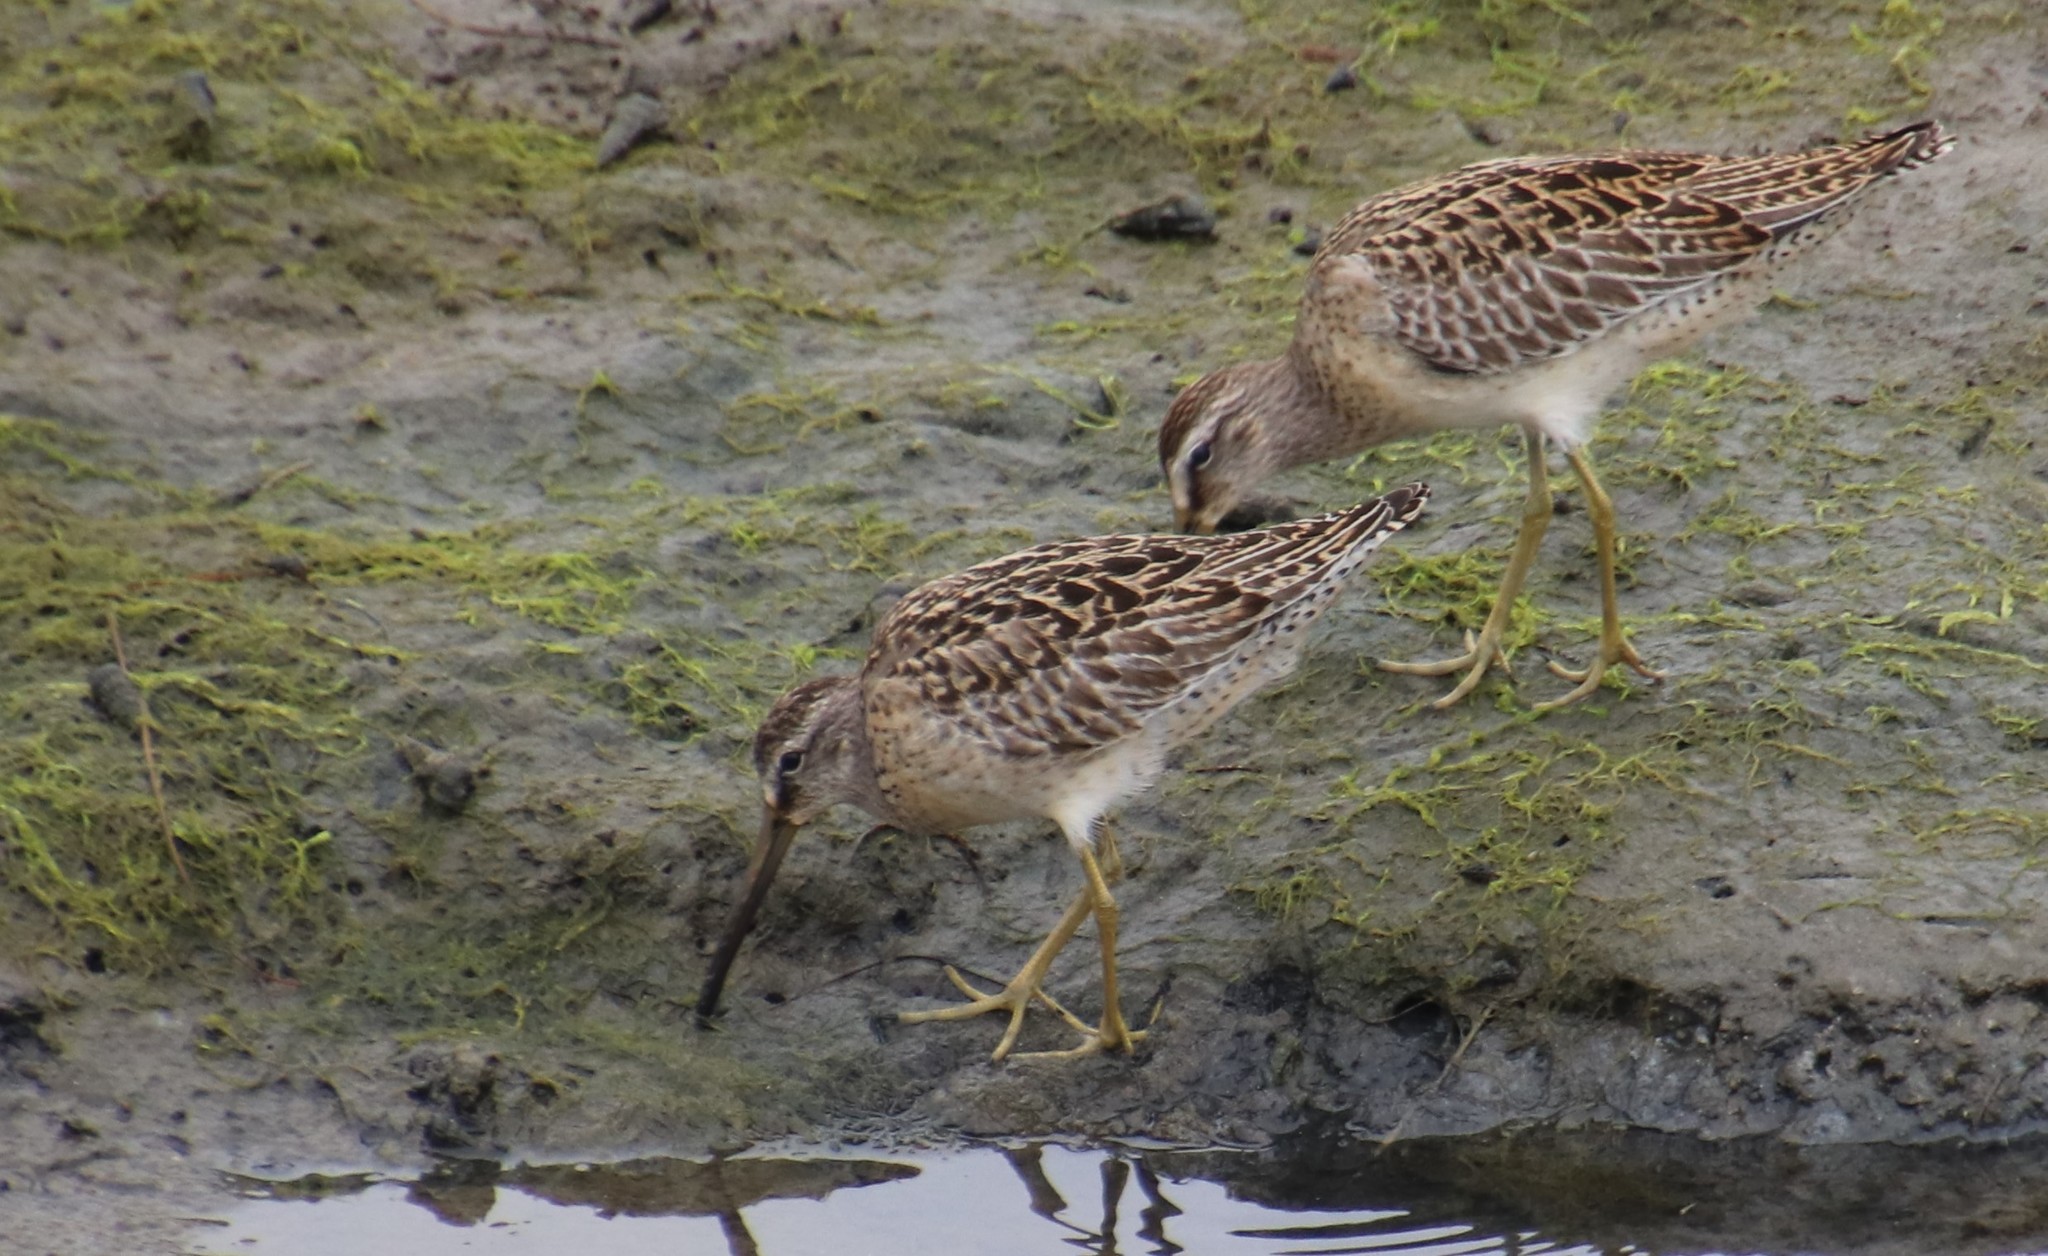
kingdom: Animalia
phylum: Chordata
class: Aves
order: Charadriiformes
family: Scolopacidae
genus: Limnodromus
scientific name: Limnodromus griseus
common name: Short-billed dowitcher
